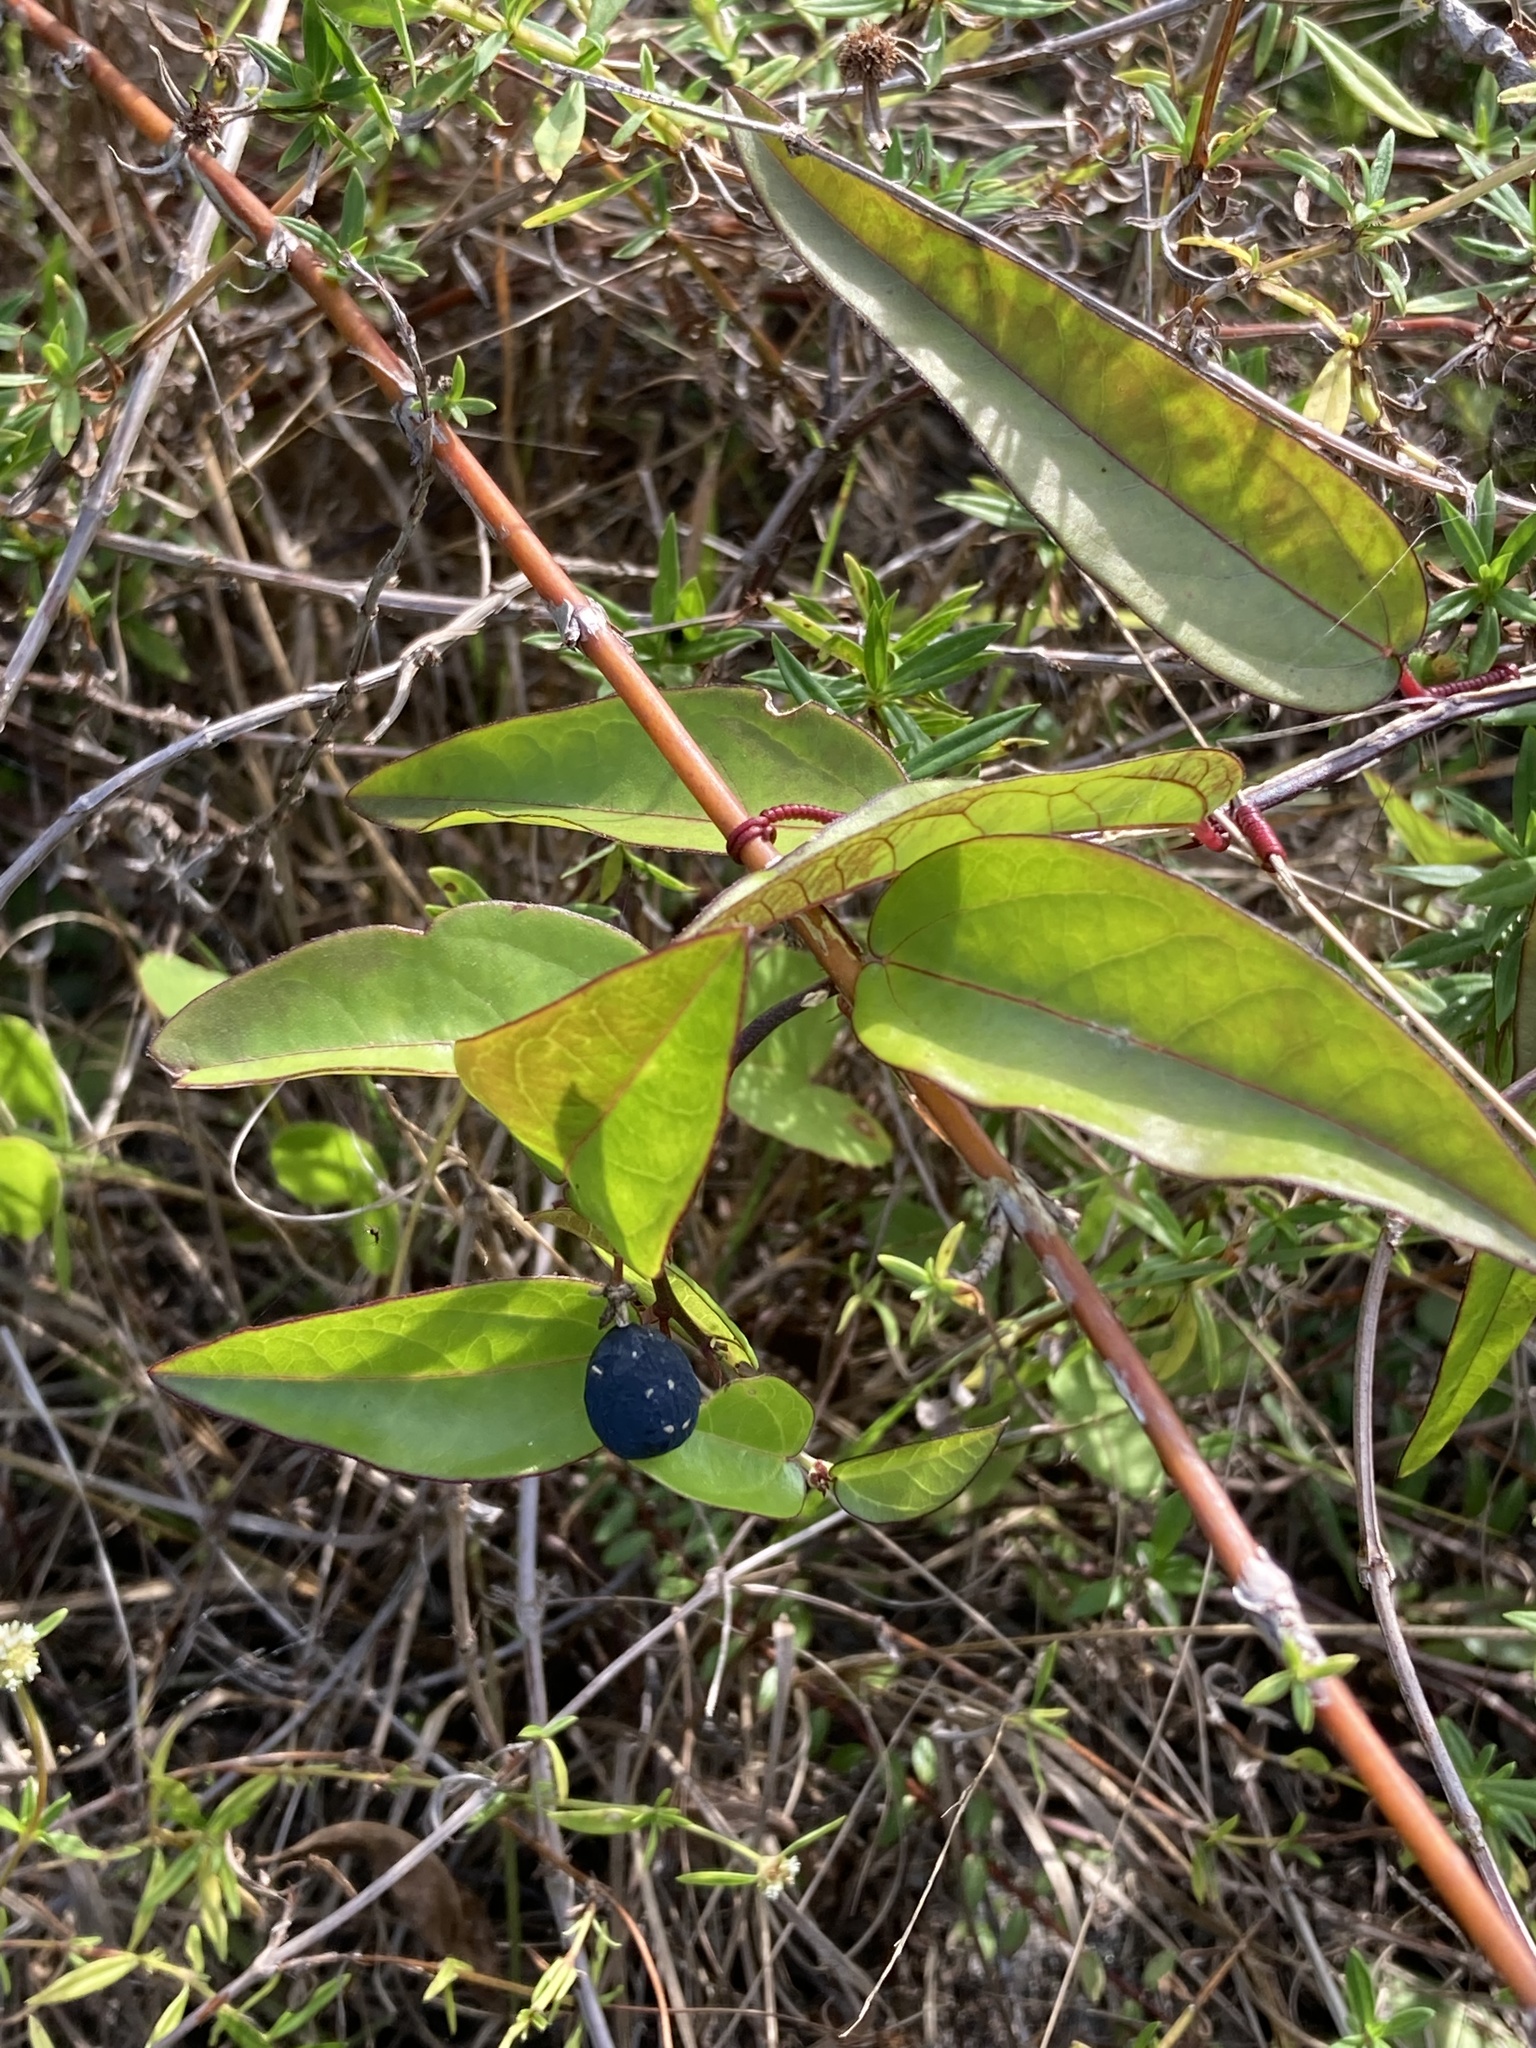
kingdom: Plantae
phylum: Tracheophyta
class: Magnoliopsida
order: Malpighiales
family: Passifloraceae
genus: Passiflora
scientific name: Passiflora pallida
